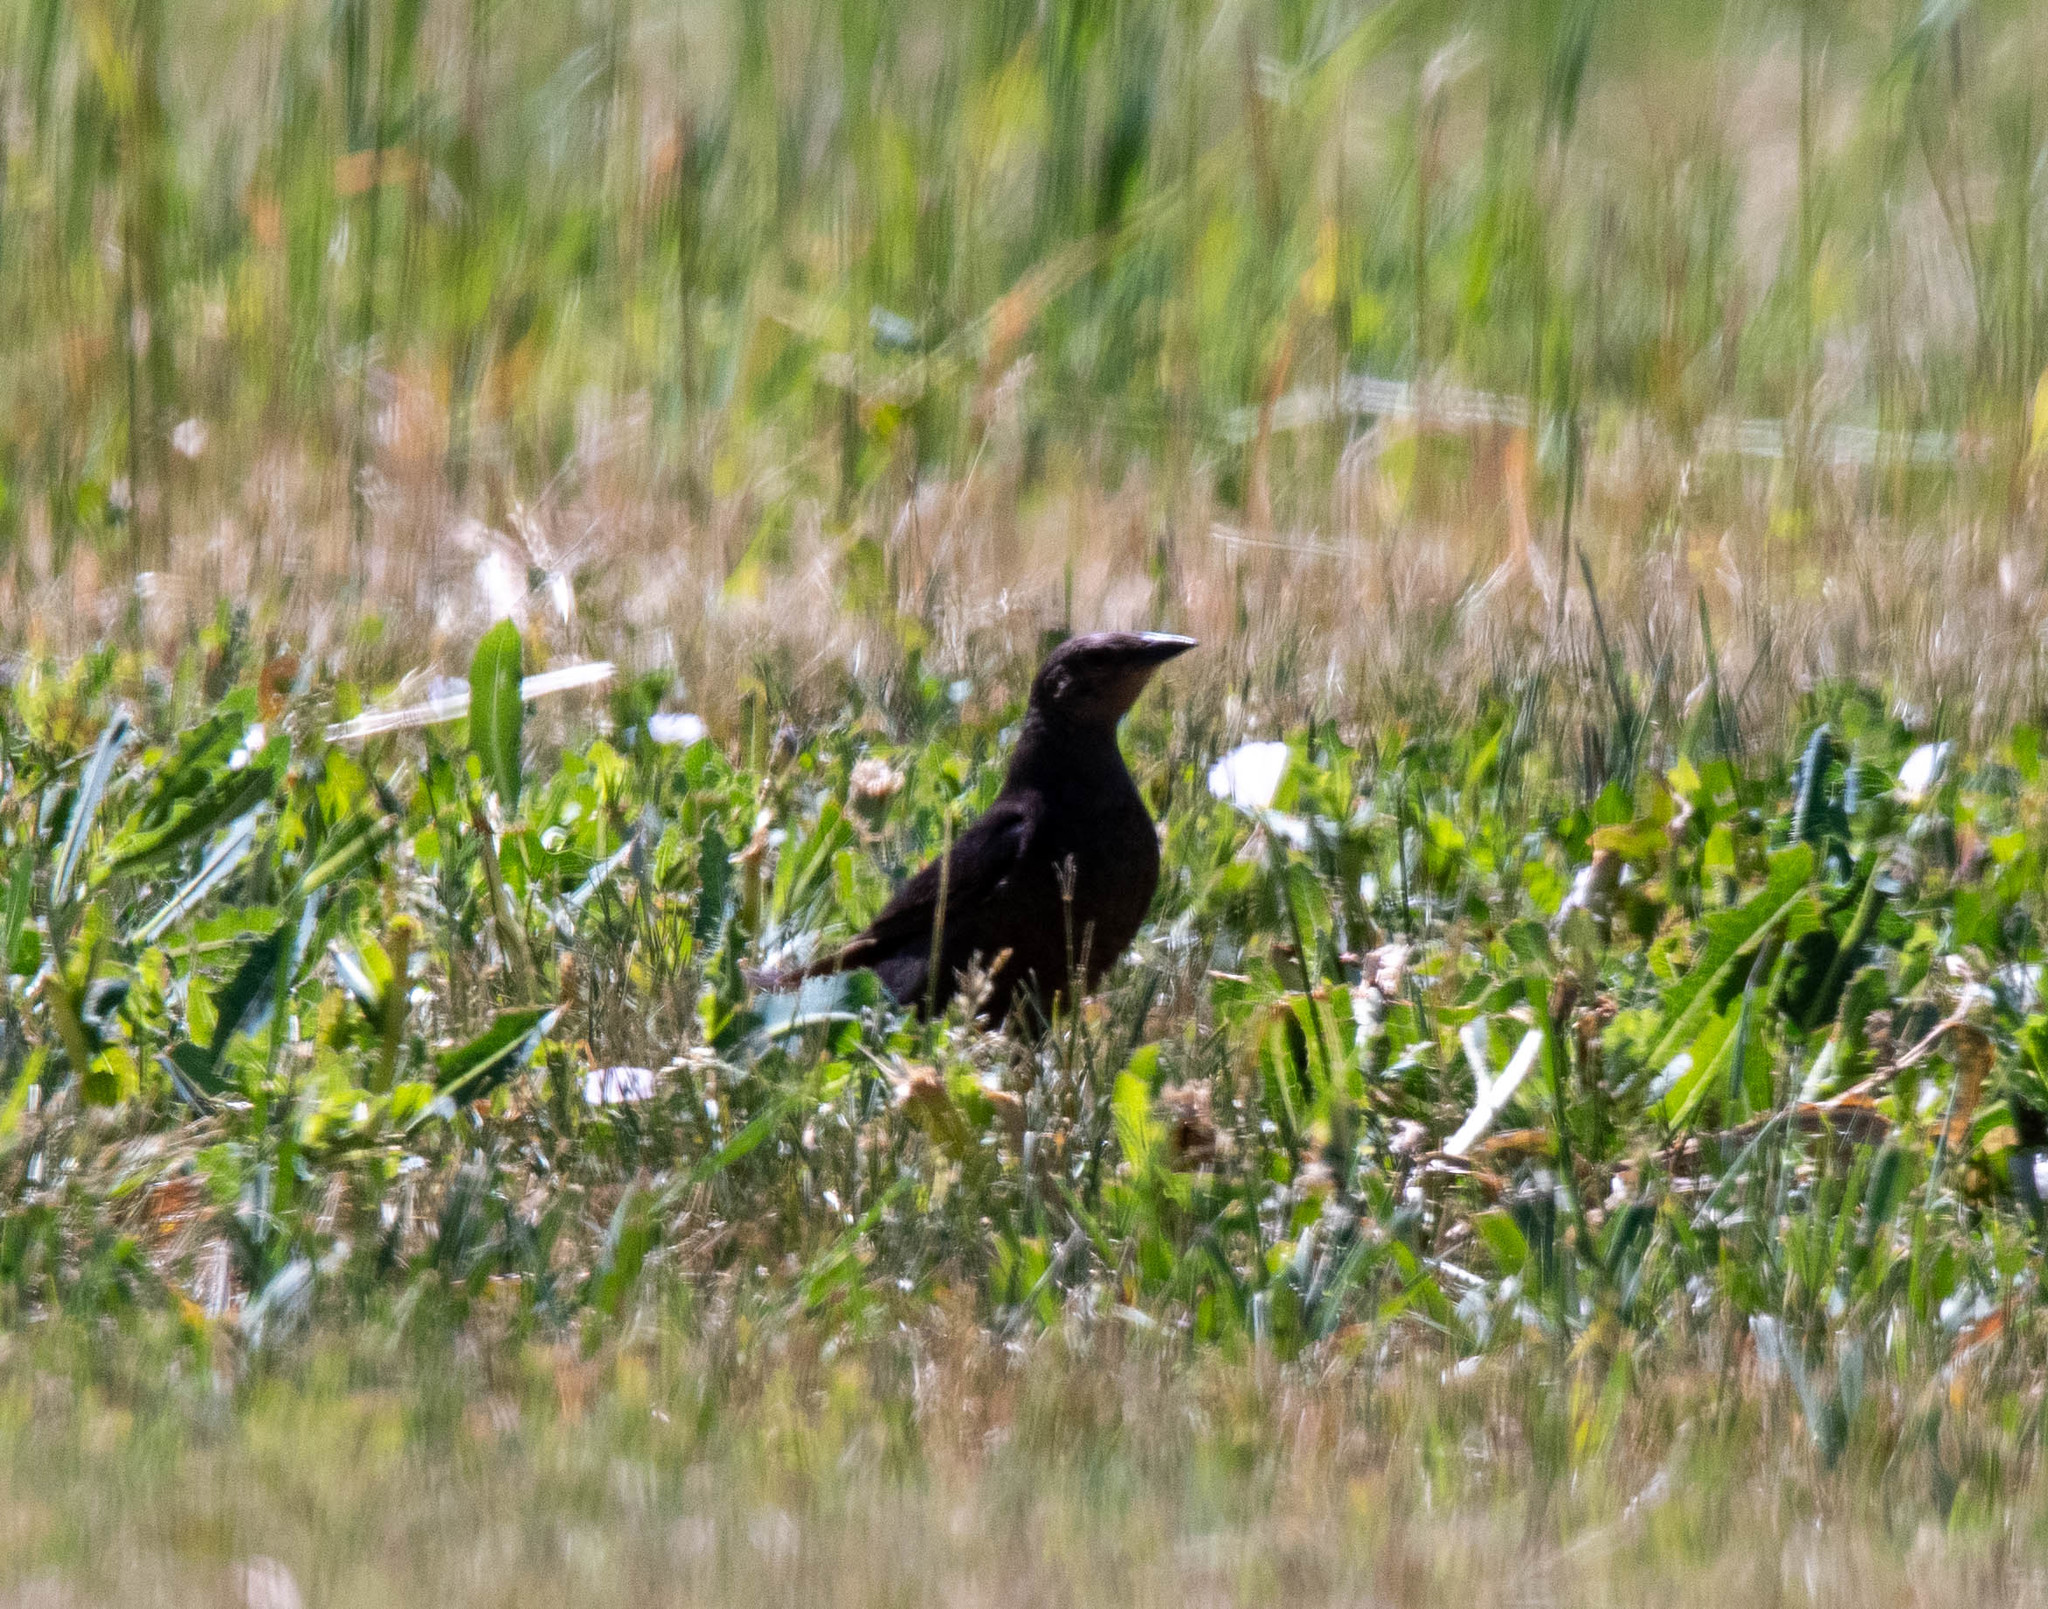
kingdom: Animalia
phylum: Chordata
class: Aves
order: Passeriformes
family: Icteridae
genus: Molothrus
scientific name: Molothrus ater
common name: Brown-headed cowbird
